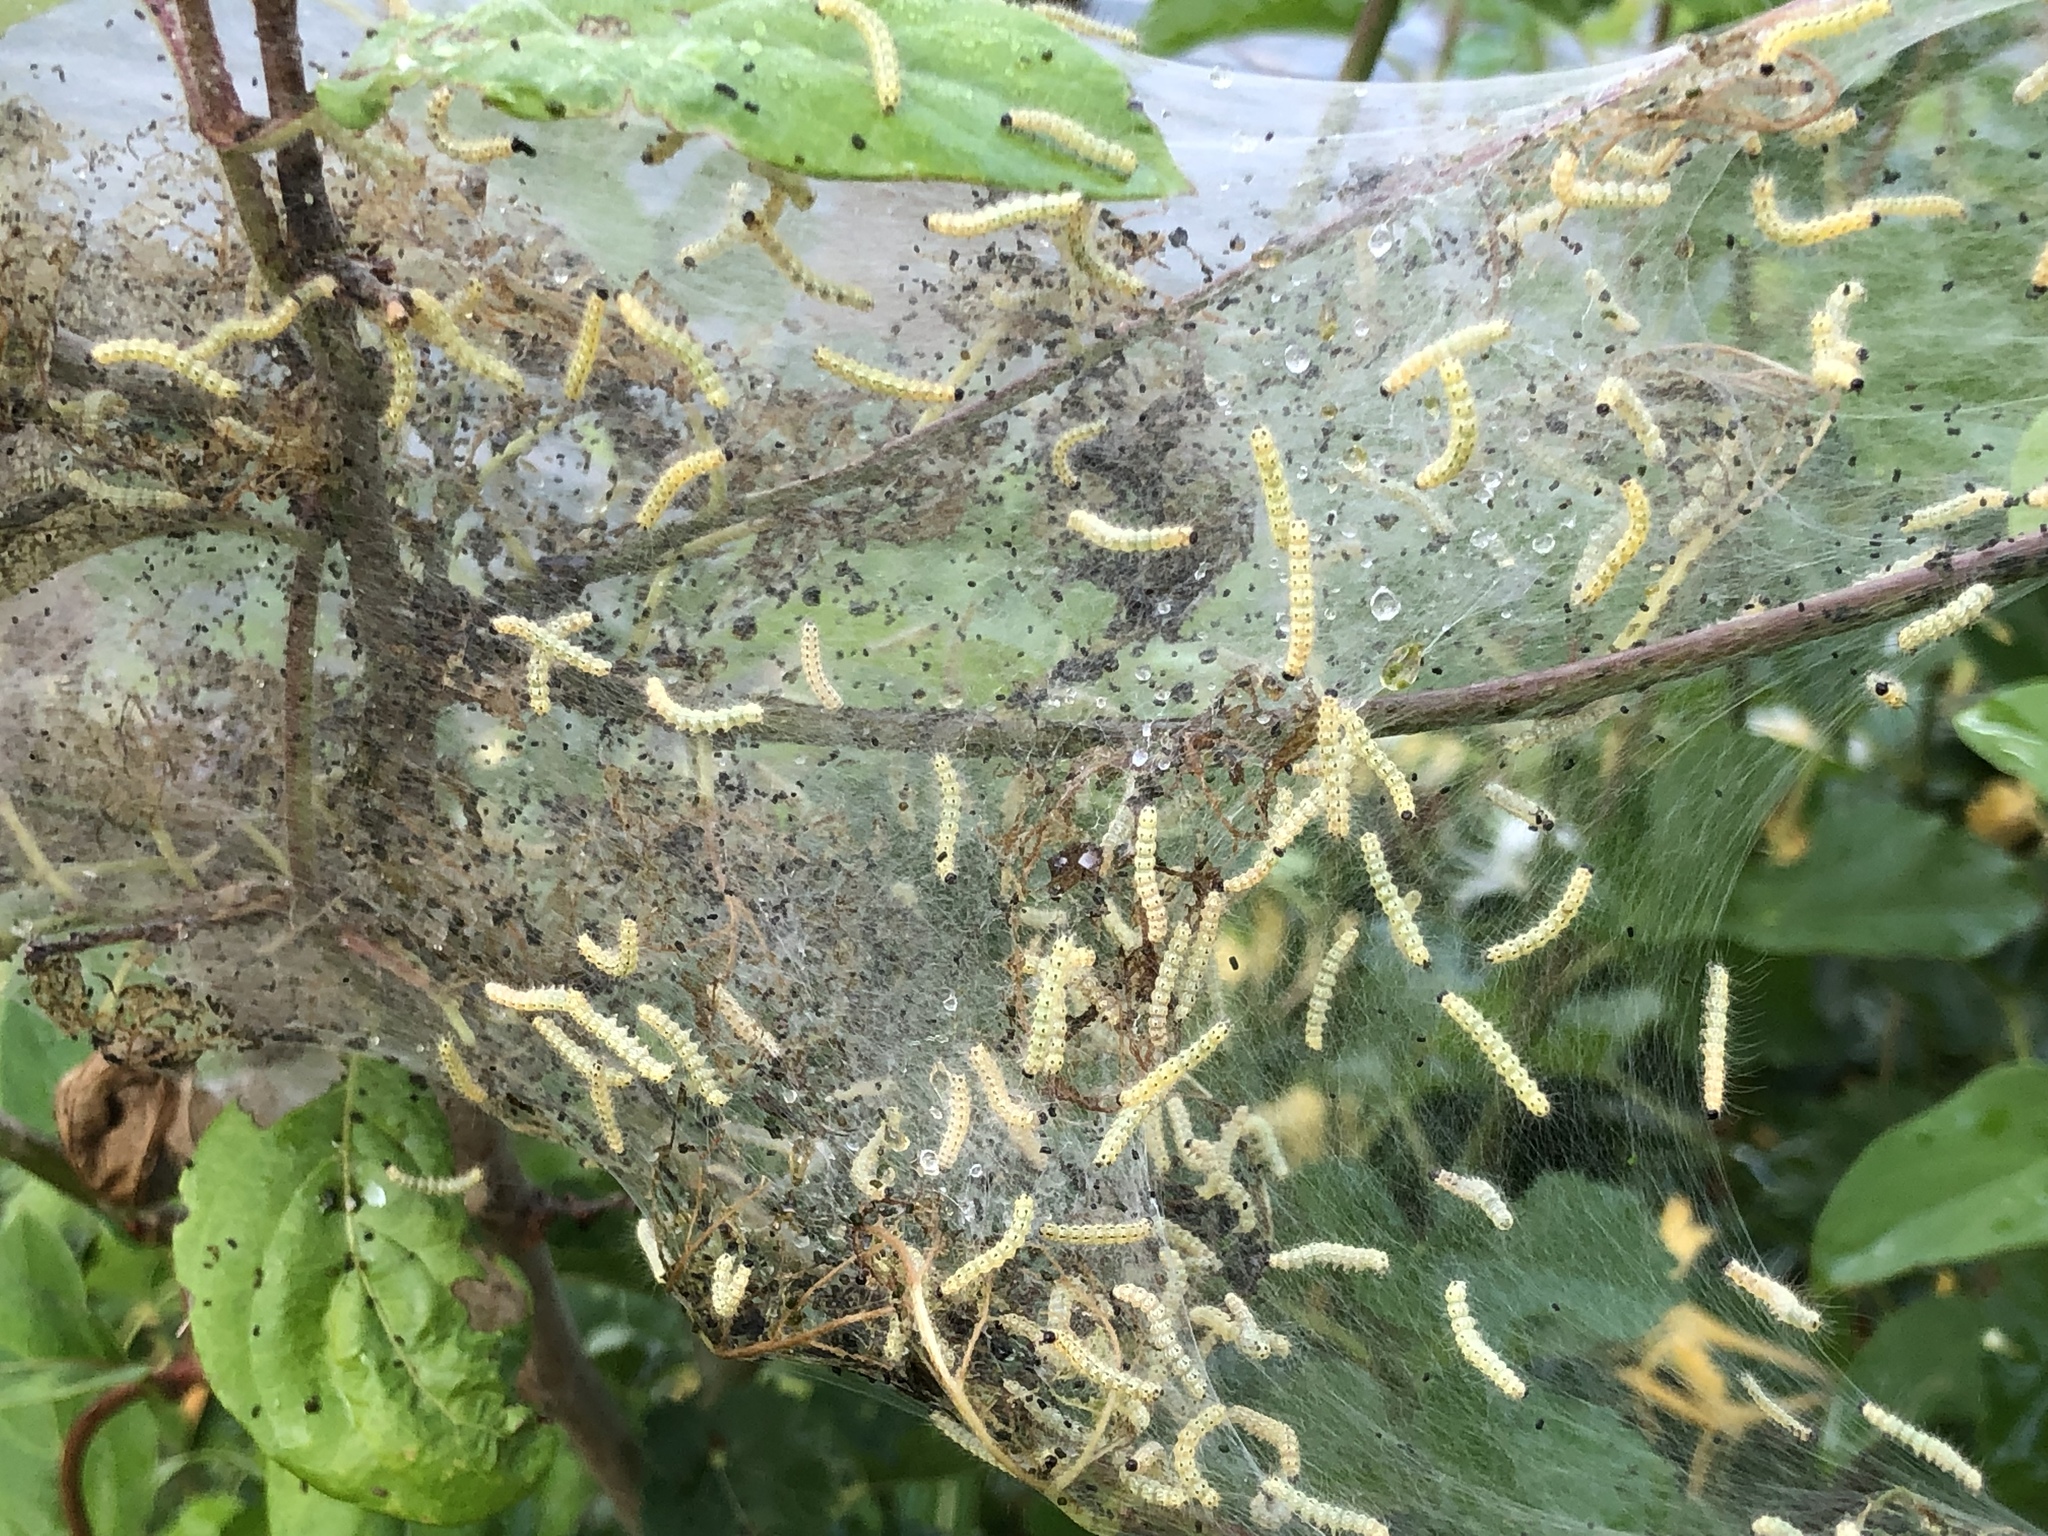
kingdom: Animalia
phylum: Arthropoda
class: Insecta
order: Lepidoptera
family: Erebidae
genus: Hyphantria
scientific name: Hyphantria cunea
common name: American white moth
